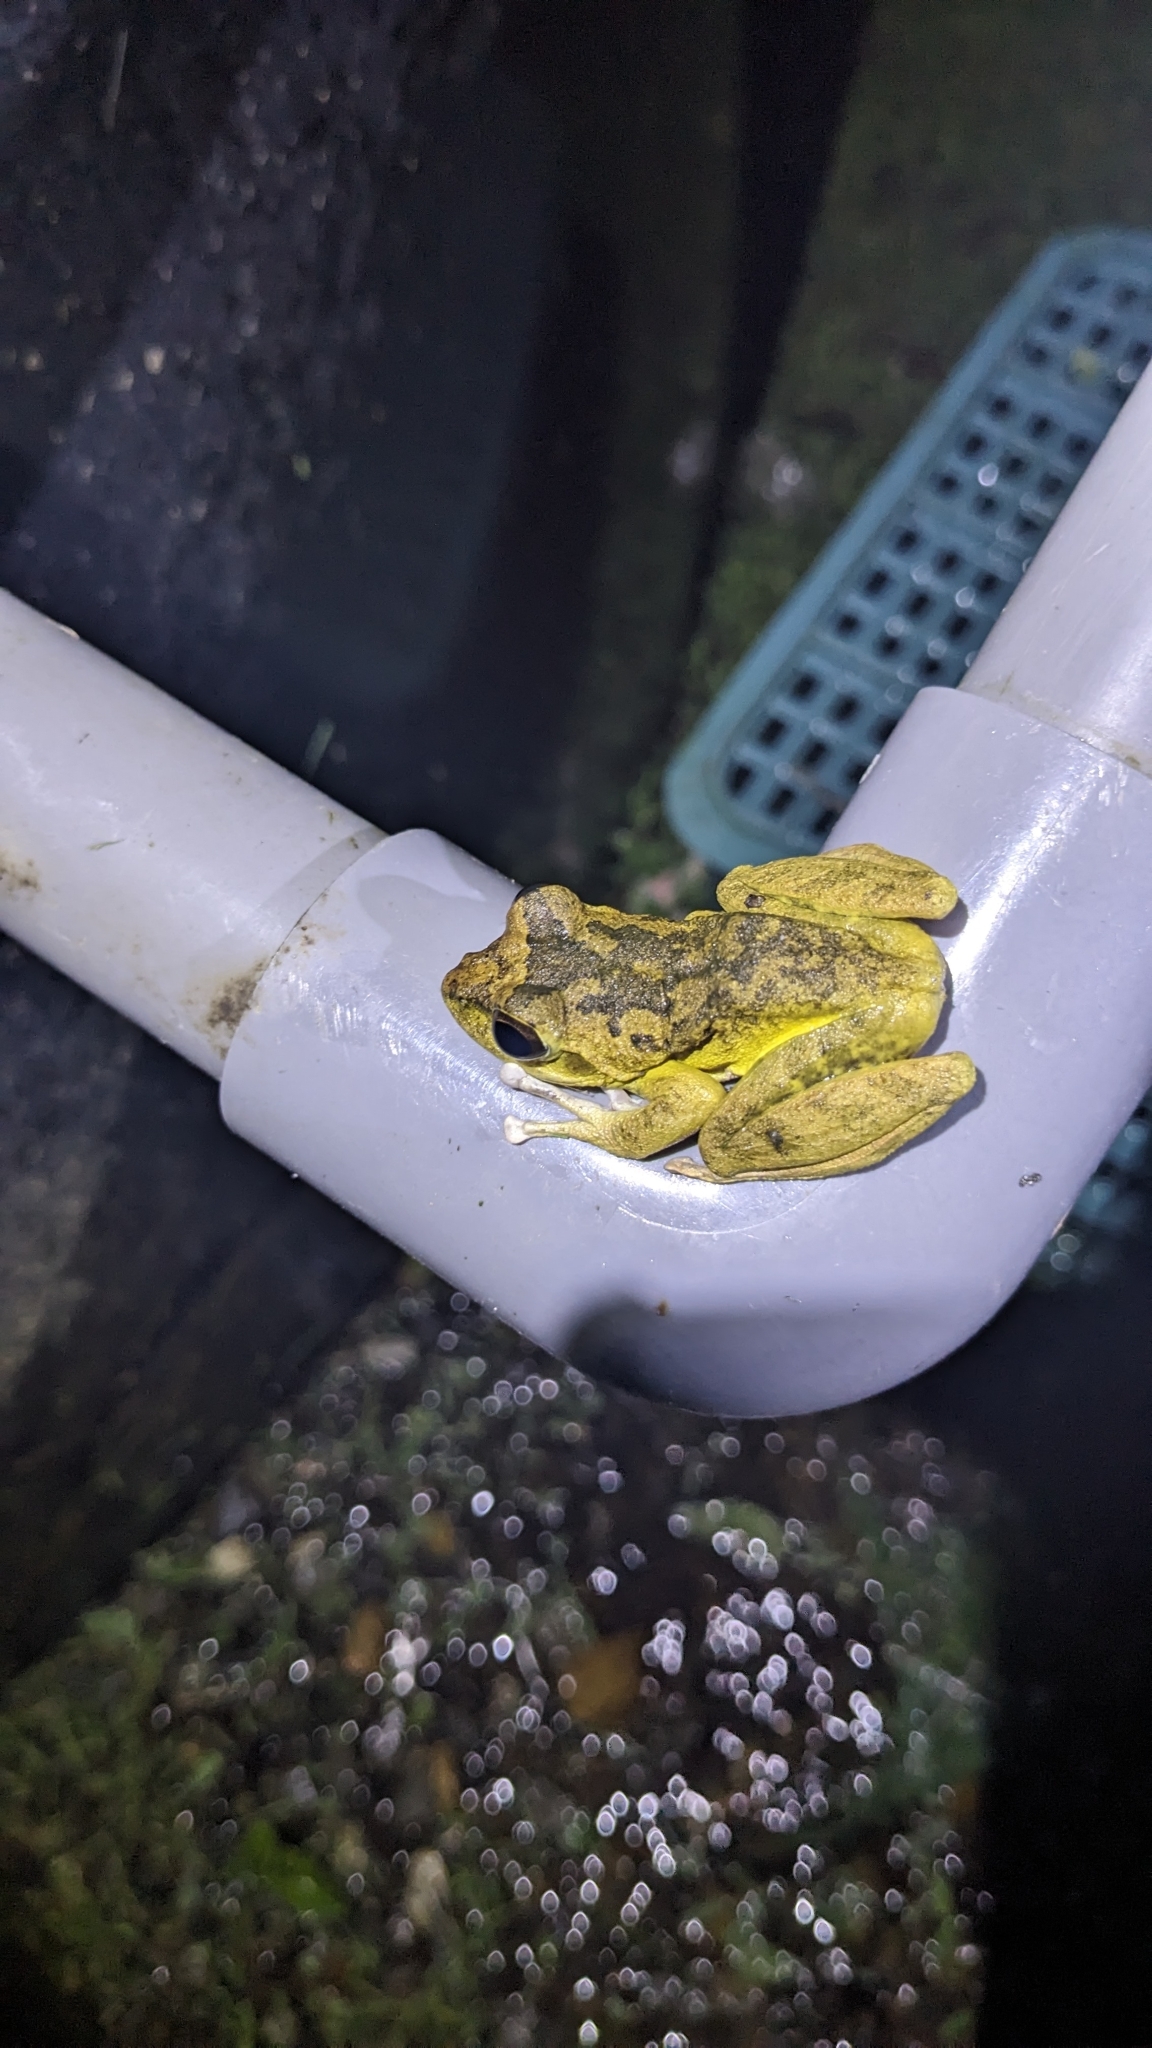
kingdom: Animalia
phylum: Chordata
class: Amphibia
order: Anura
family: Rhacophoridae
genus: Buergeria
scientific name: Buergeria robusta
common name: Brown treefrog
